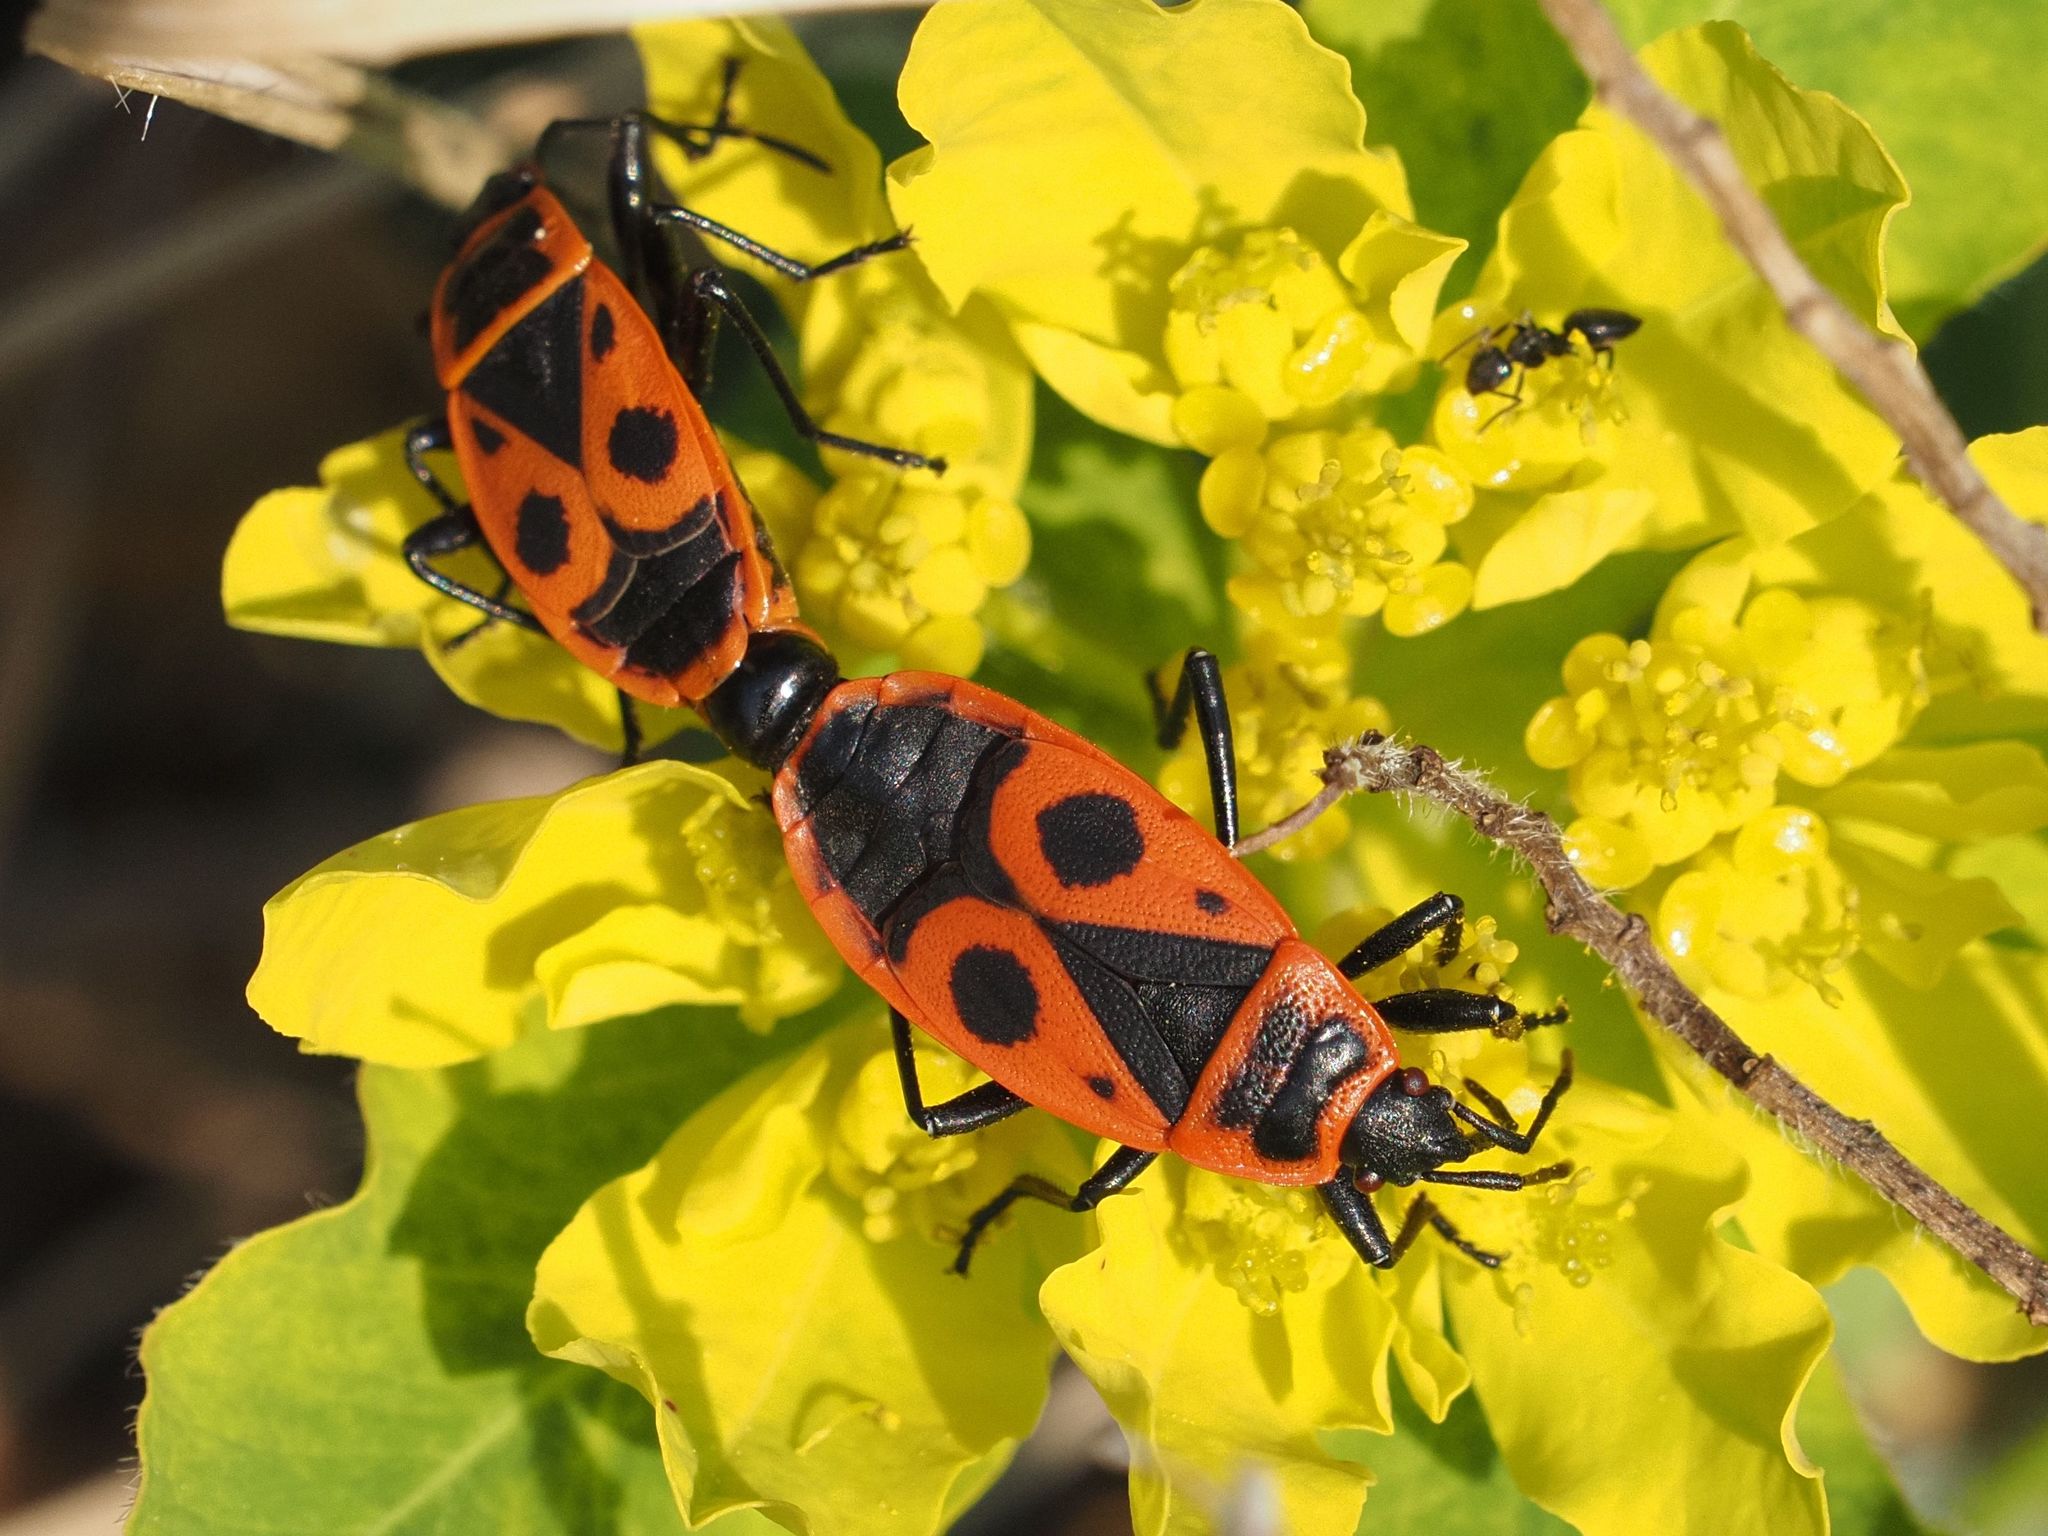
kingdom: Animalia
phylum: Arthropoda
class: Insecta
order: Hemiptera
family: Pyrrhocoridae
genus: Pyrrhocoris
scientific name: Pyrrhocoris apterus
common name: Firebug
